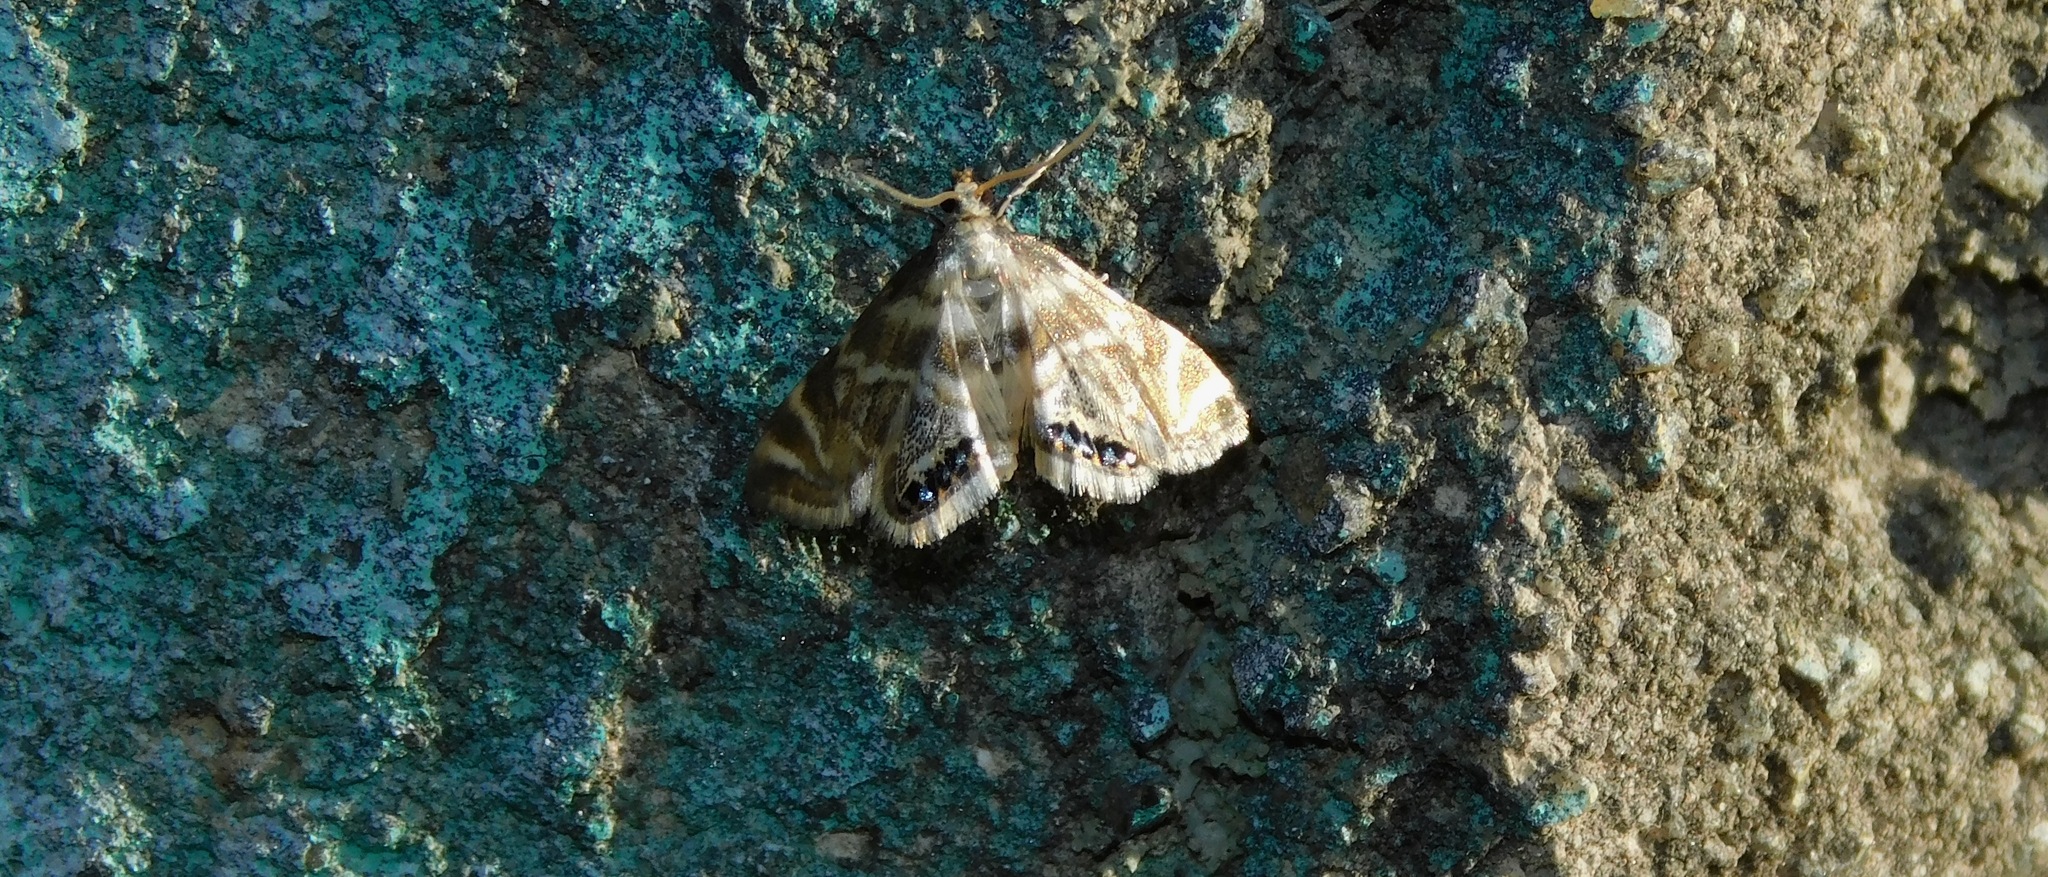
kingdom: Animalia
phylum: Arthropoda
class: Insecta
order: Lepidoptera
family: Crambidae
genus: Petrophila
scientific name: Petrophila canadensis
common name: Canadian petrophila
